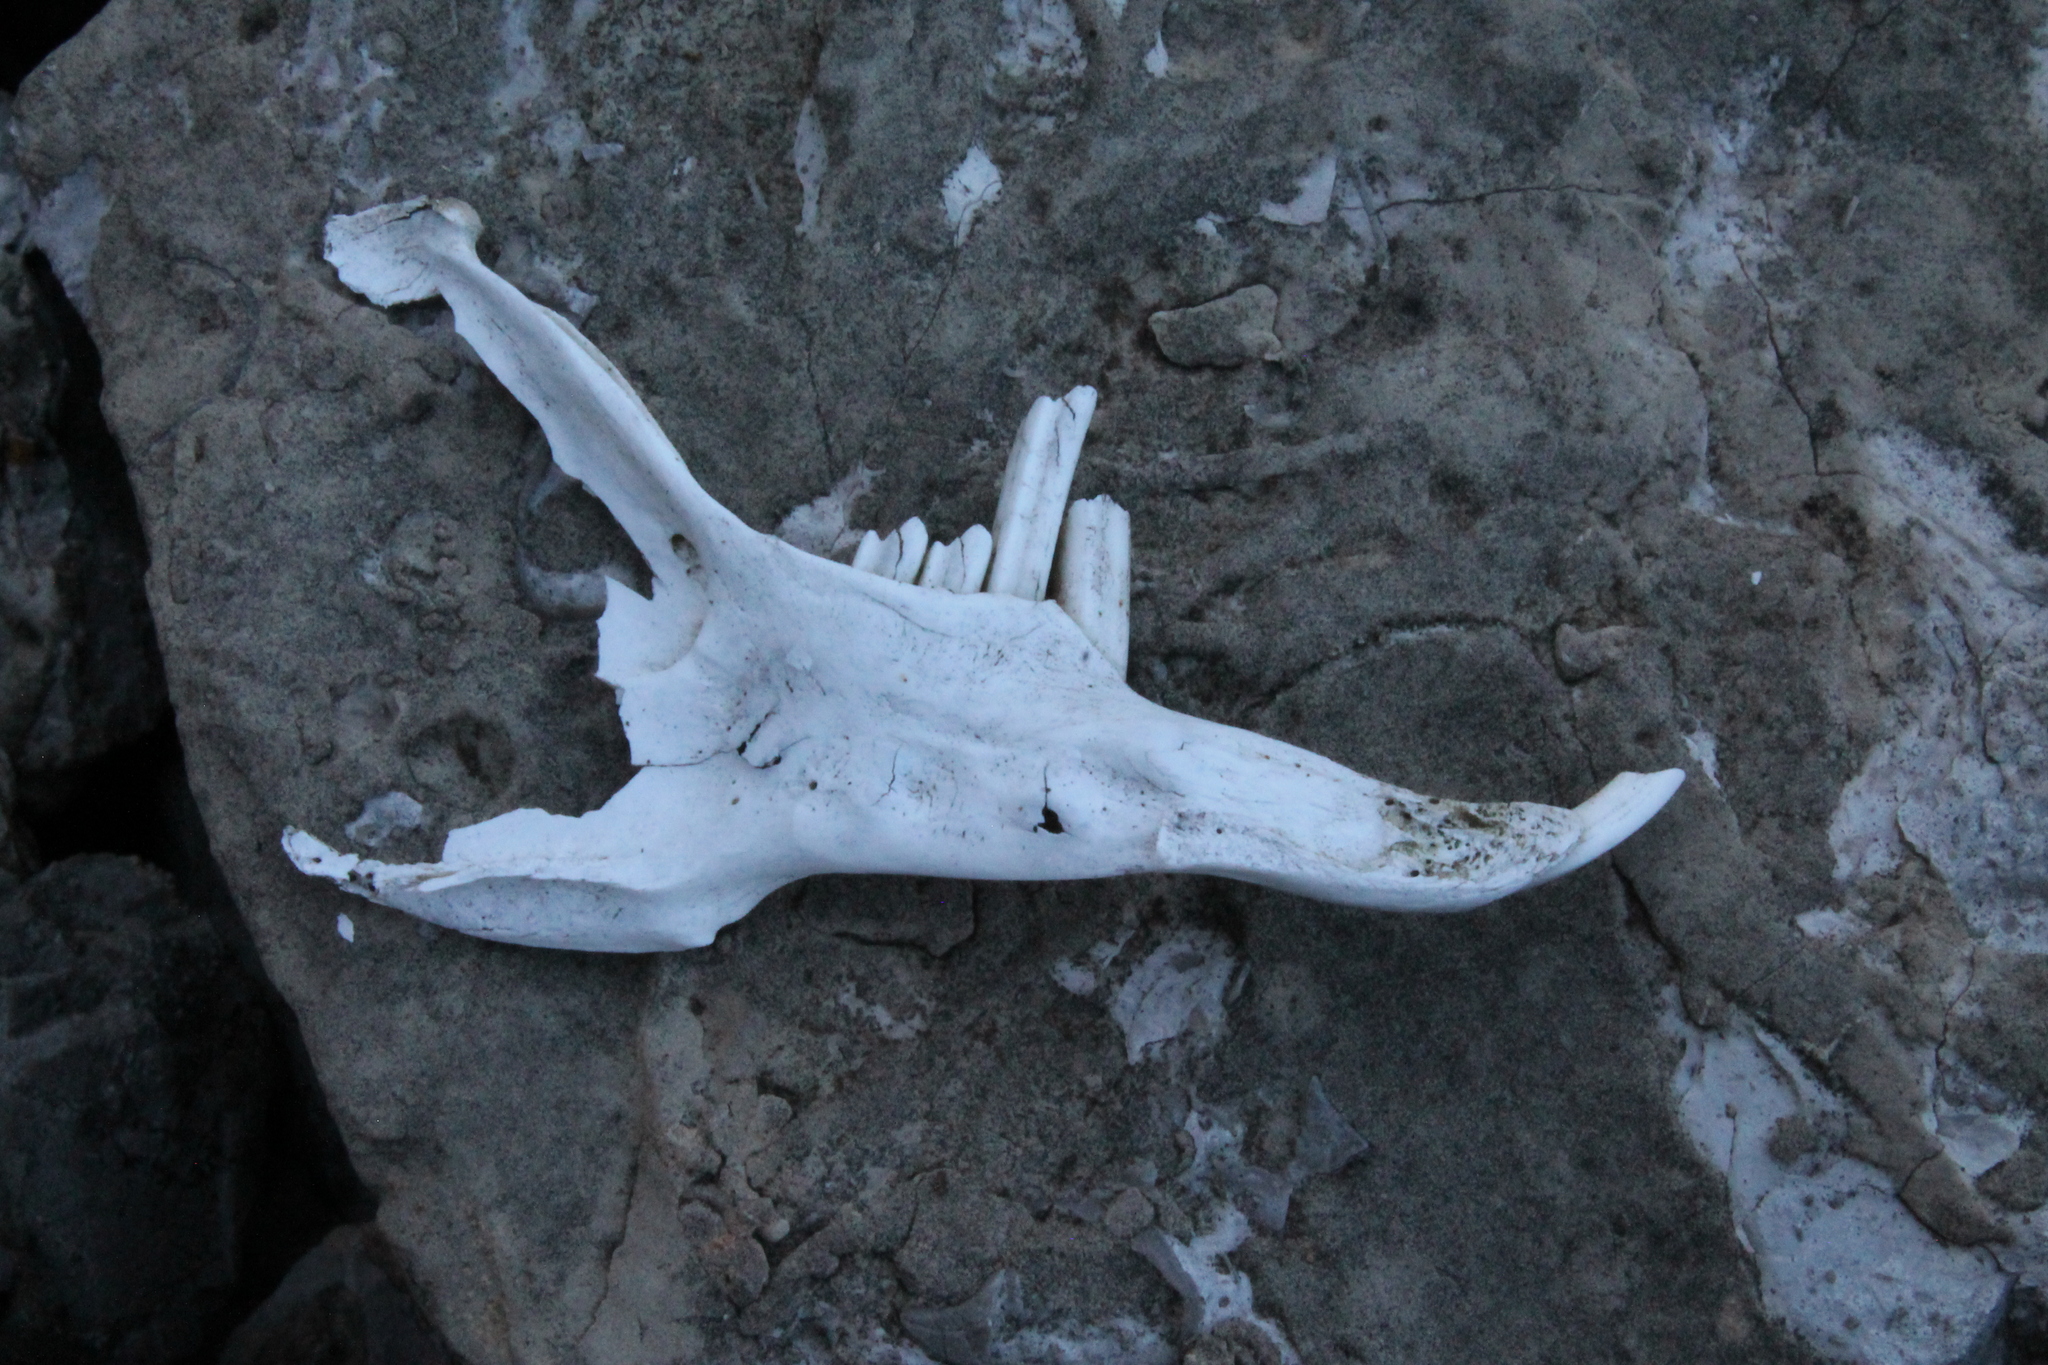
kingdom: Animalia
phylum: Chordata
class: Mammalia
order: Lagomorpha
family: Leporidae
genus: Sylvilagus
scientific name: Sylvilagus floridanus
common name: Eastern cottontail
